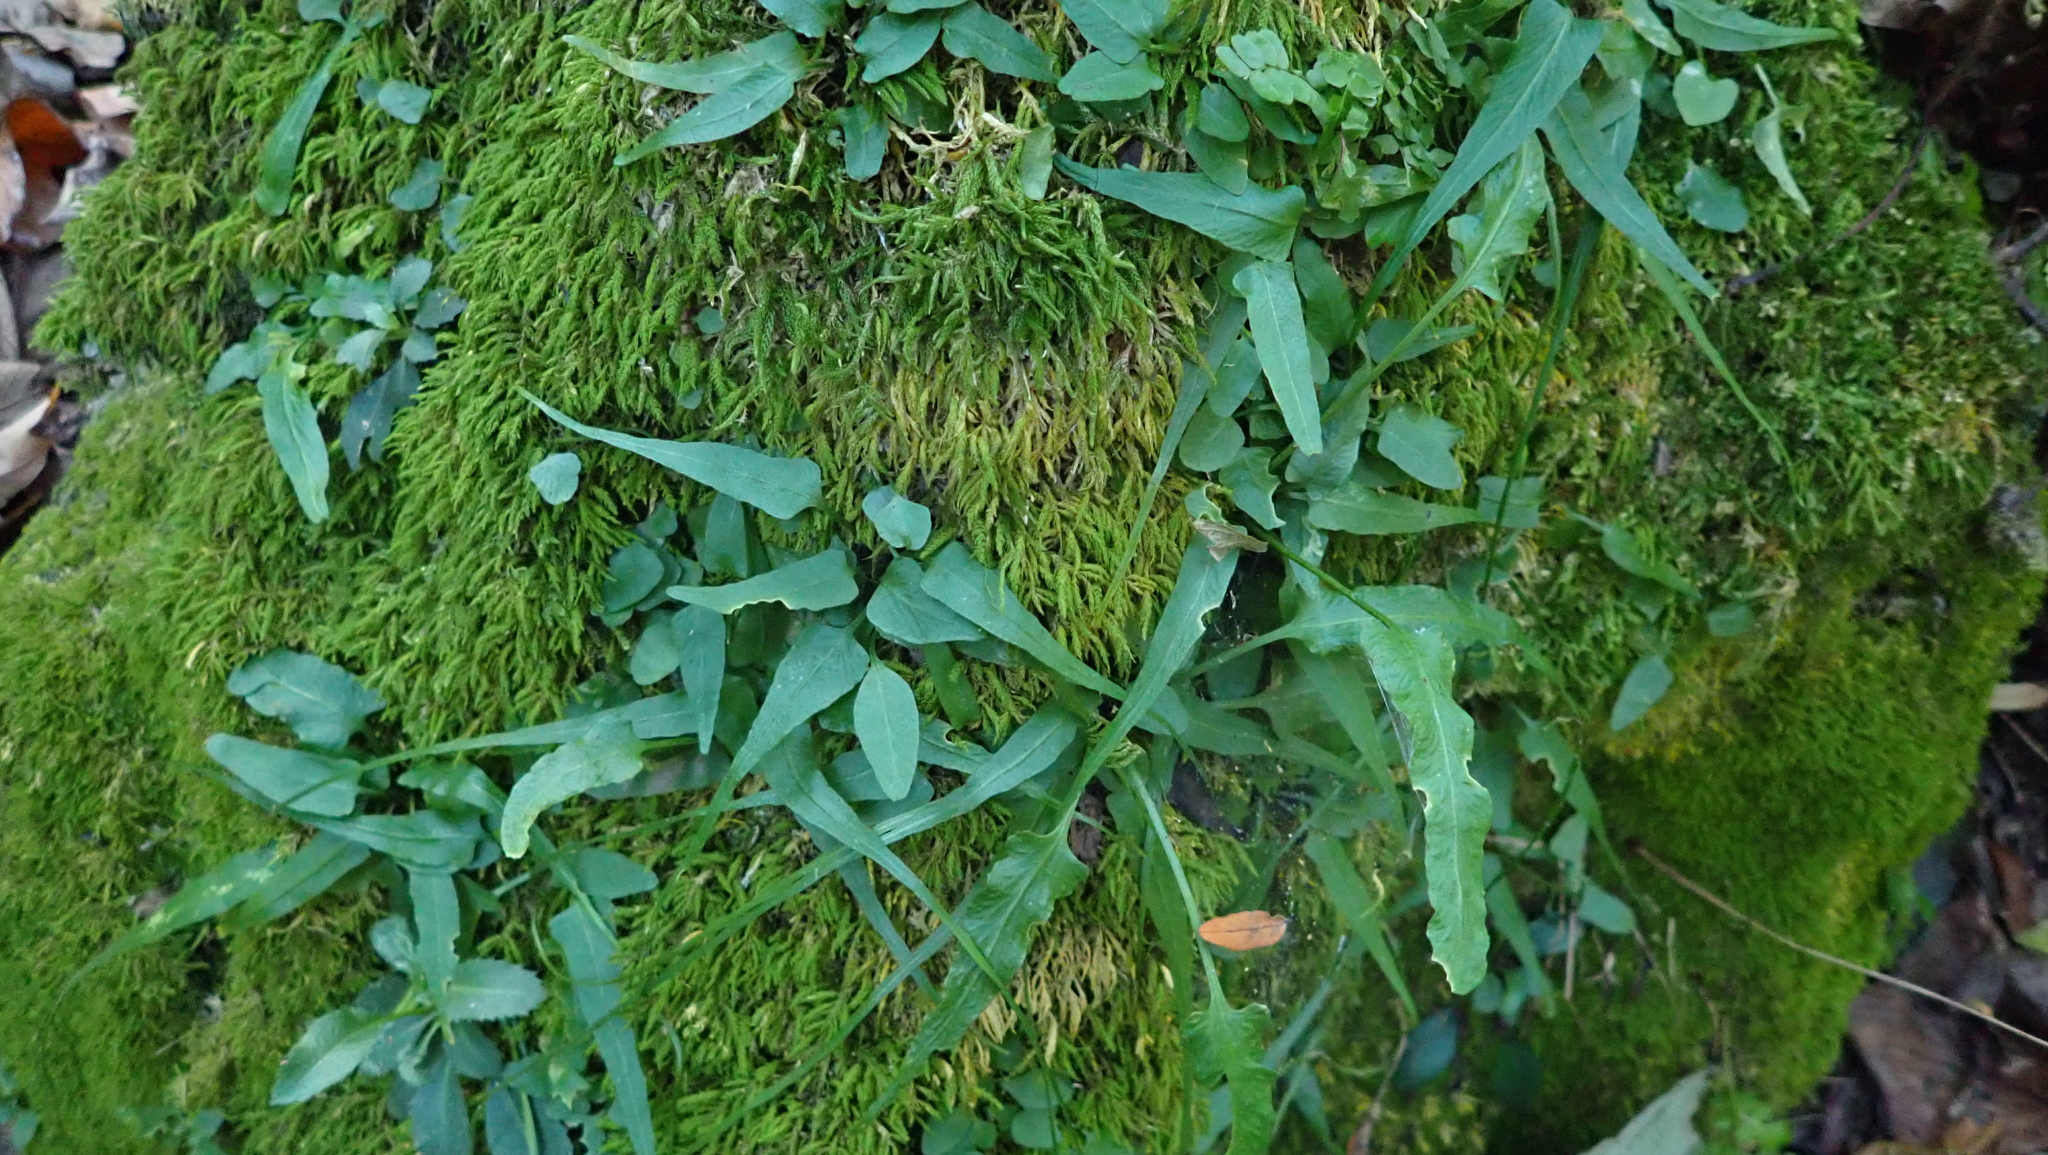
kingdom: Plantae
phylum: Tracheophyta
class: Polypodiopsida
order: Polypodiales
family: Aspleniaceae
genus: Asplenium
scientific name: Asplenium rhizophyllum
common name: Walking fern
